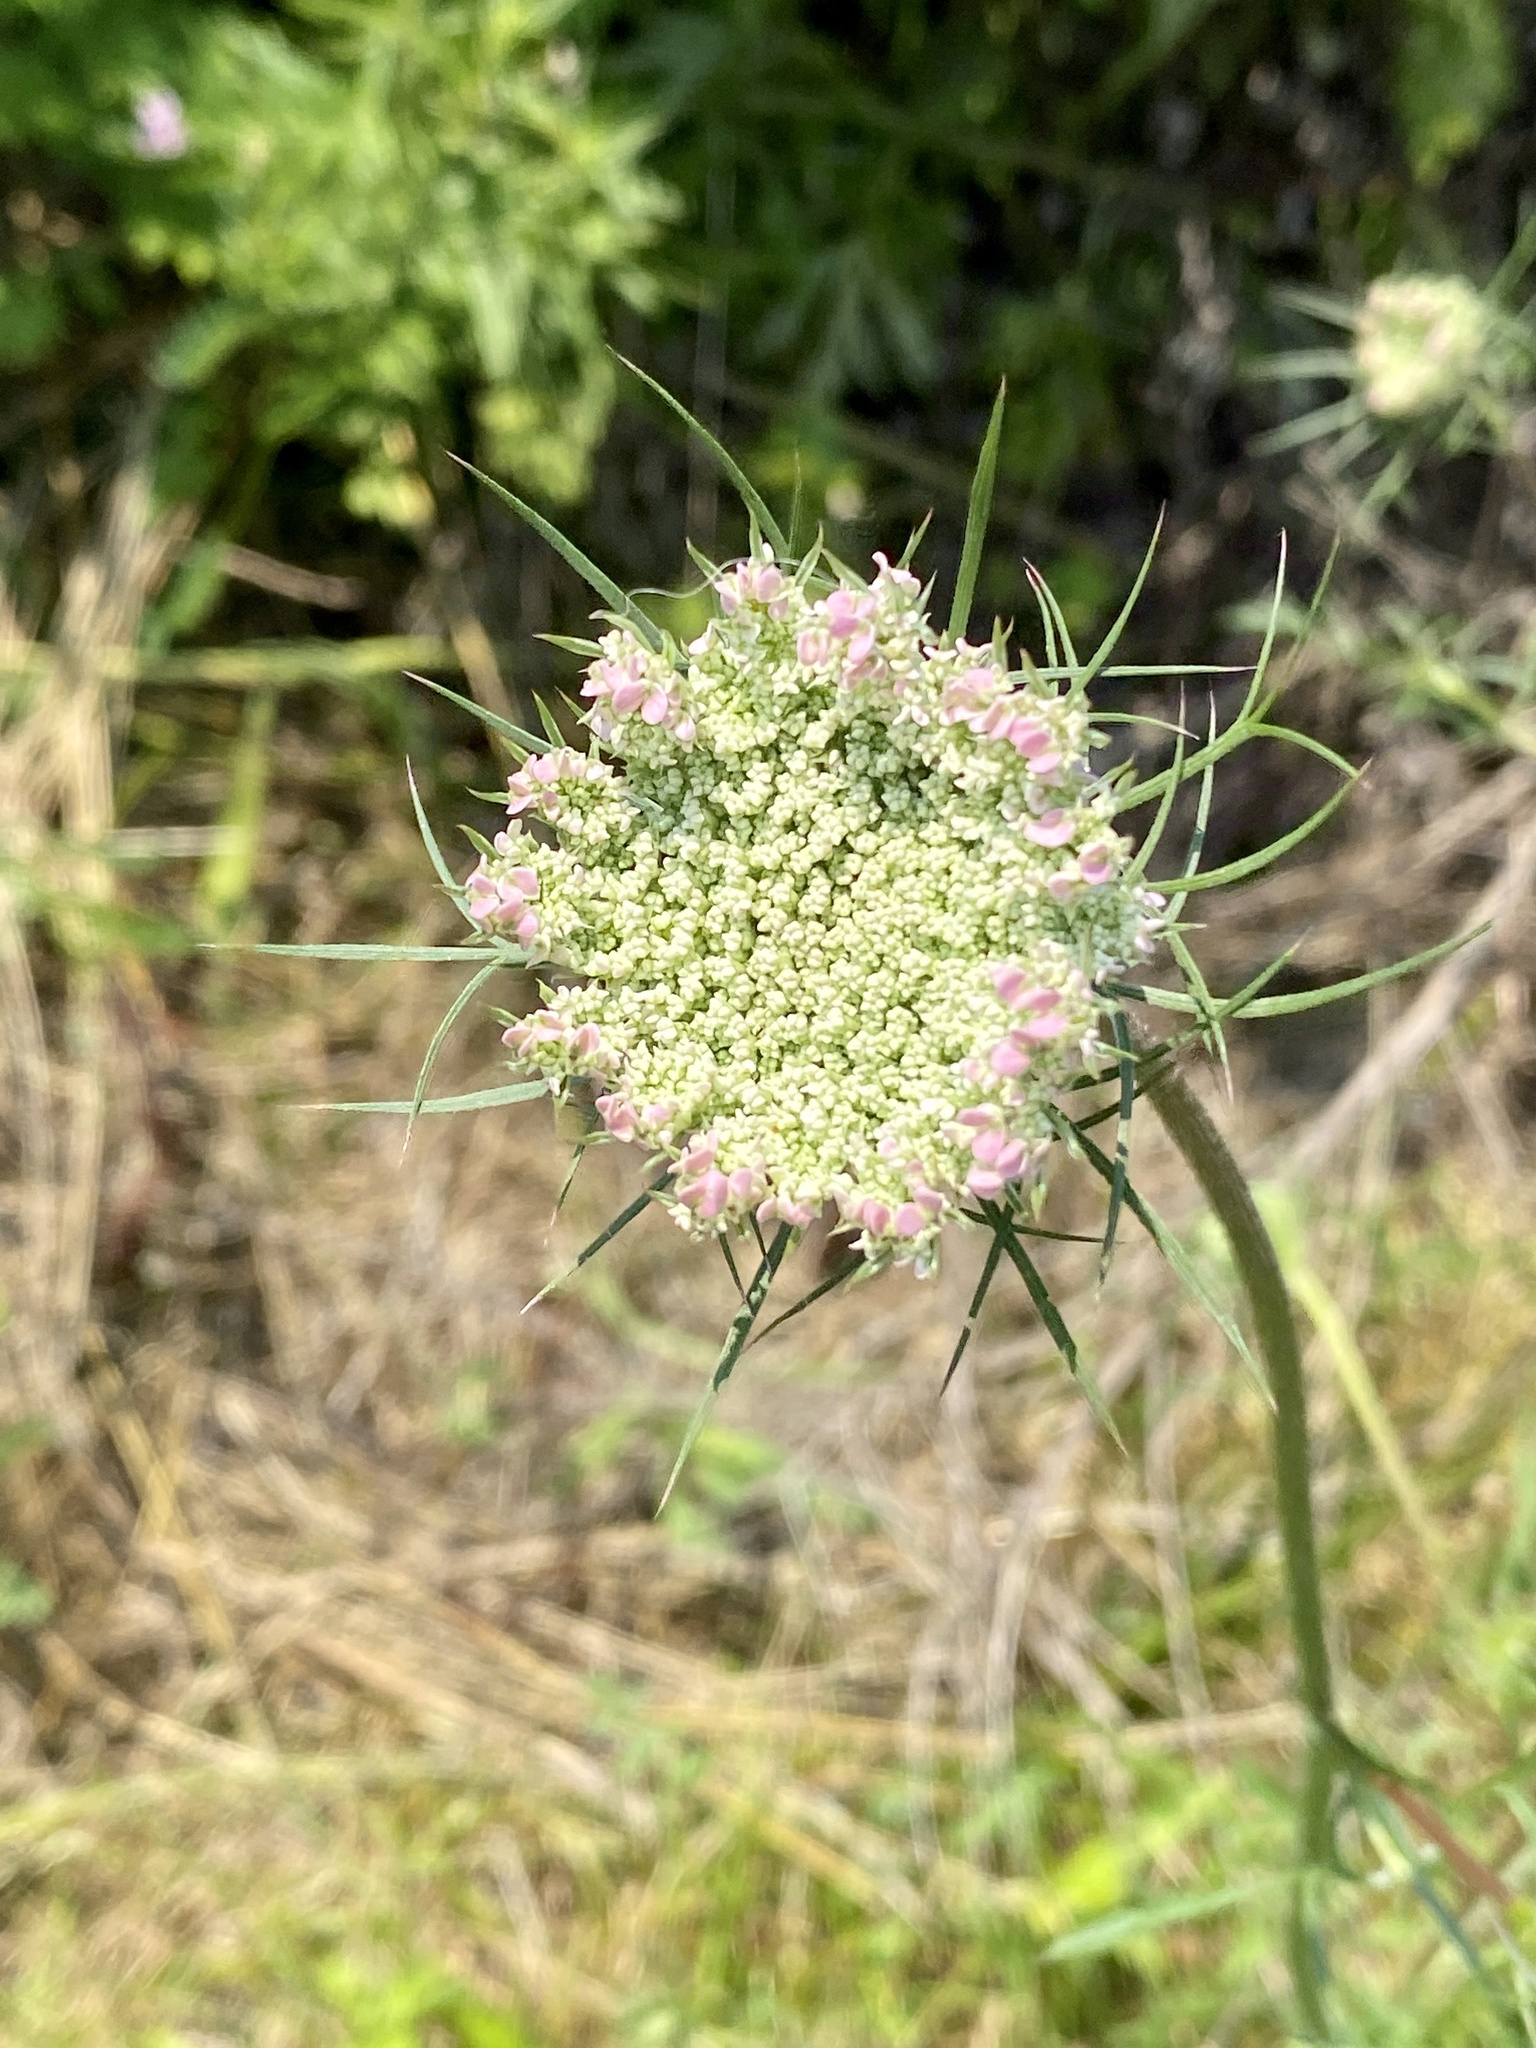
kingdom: Plantae
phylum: Tracheophyta
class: Magnoliopsida
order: Apiales
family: Apiaceae
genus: Daucus
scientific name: Daucus carota
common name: Wild carrot
